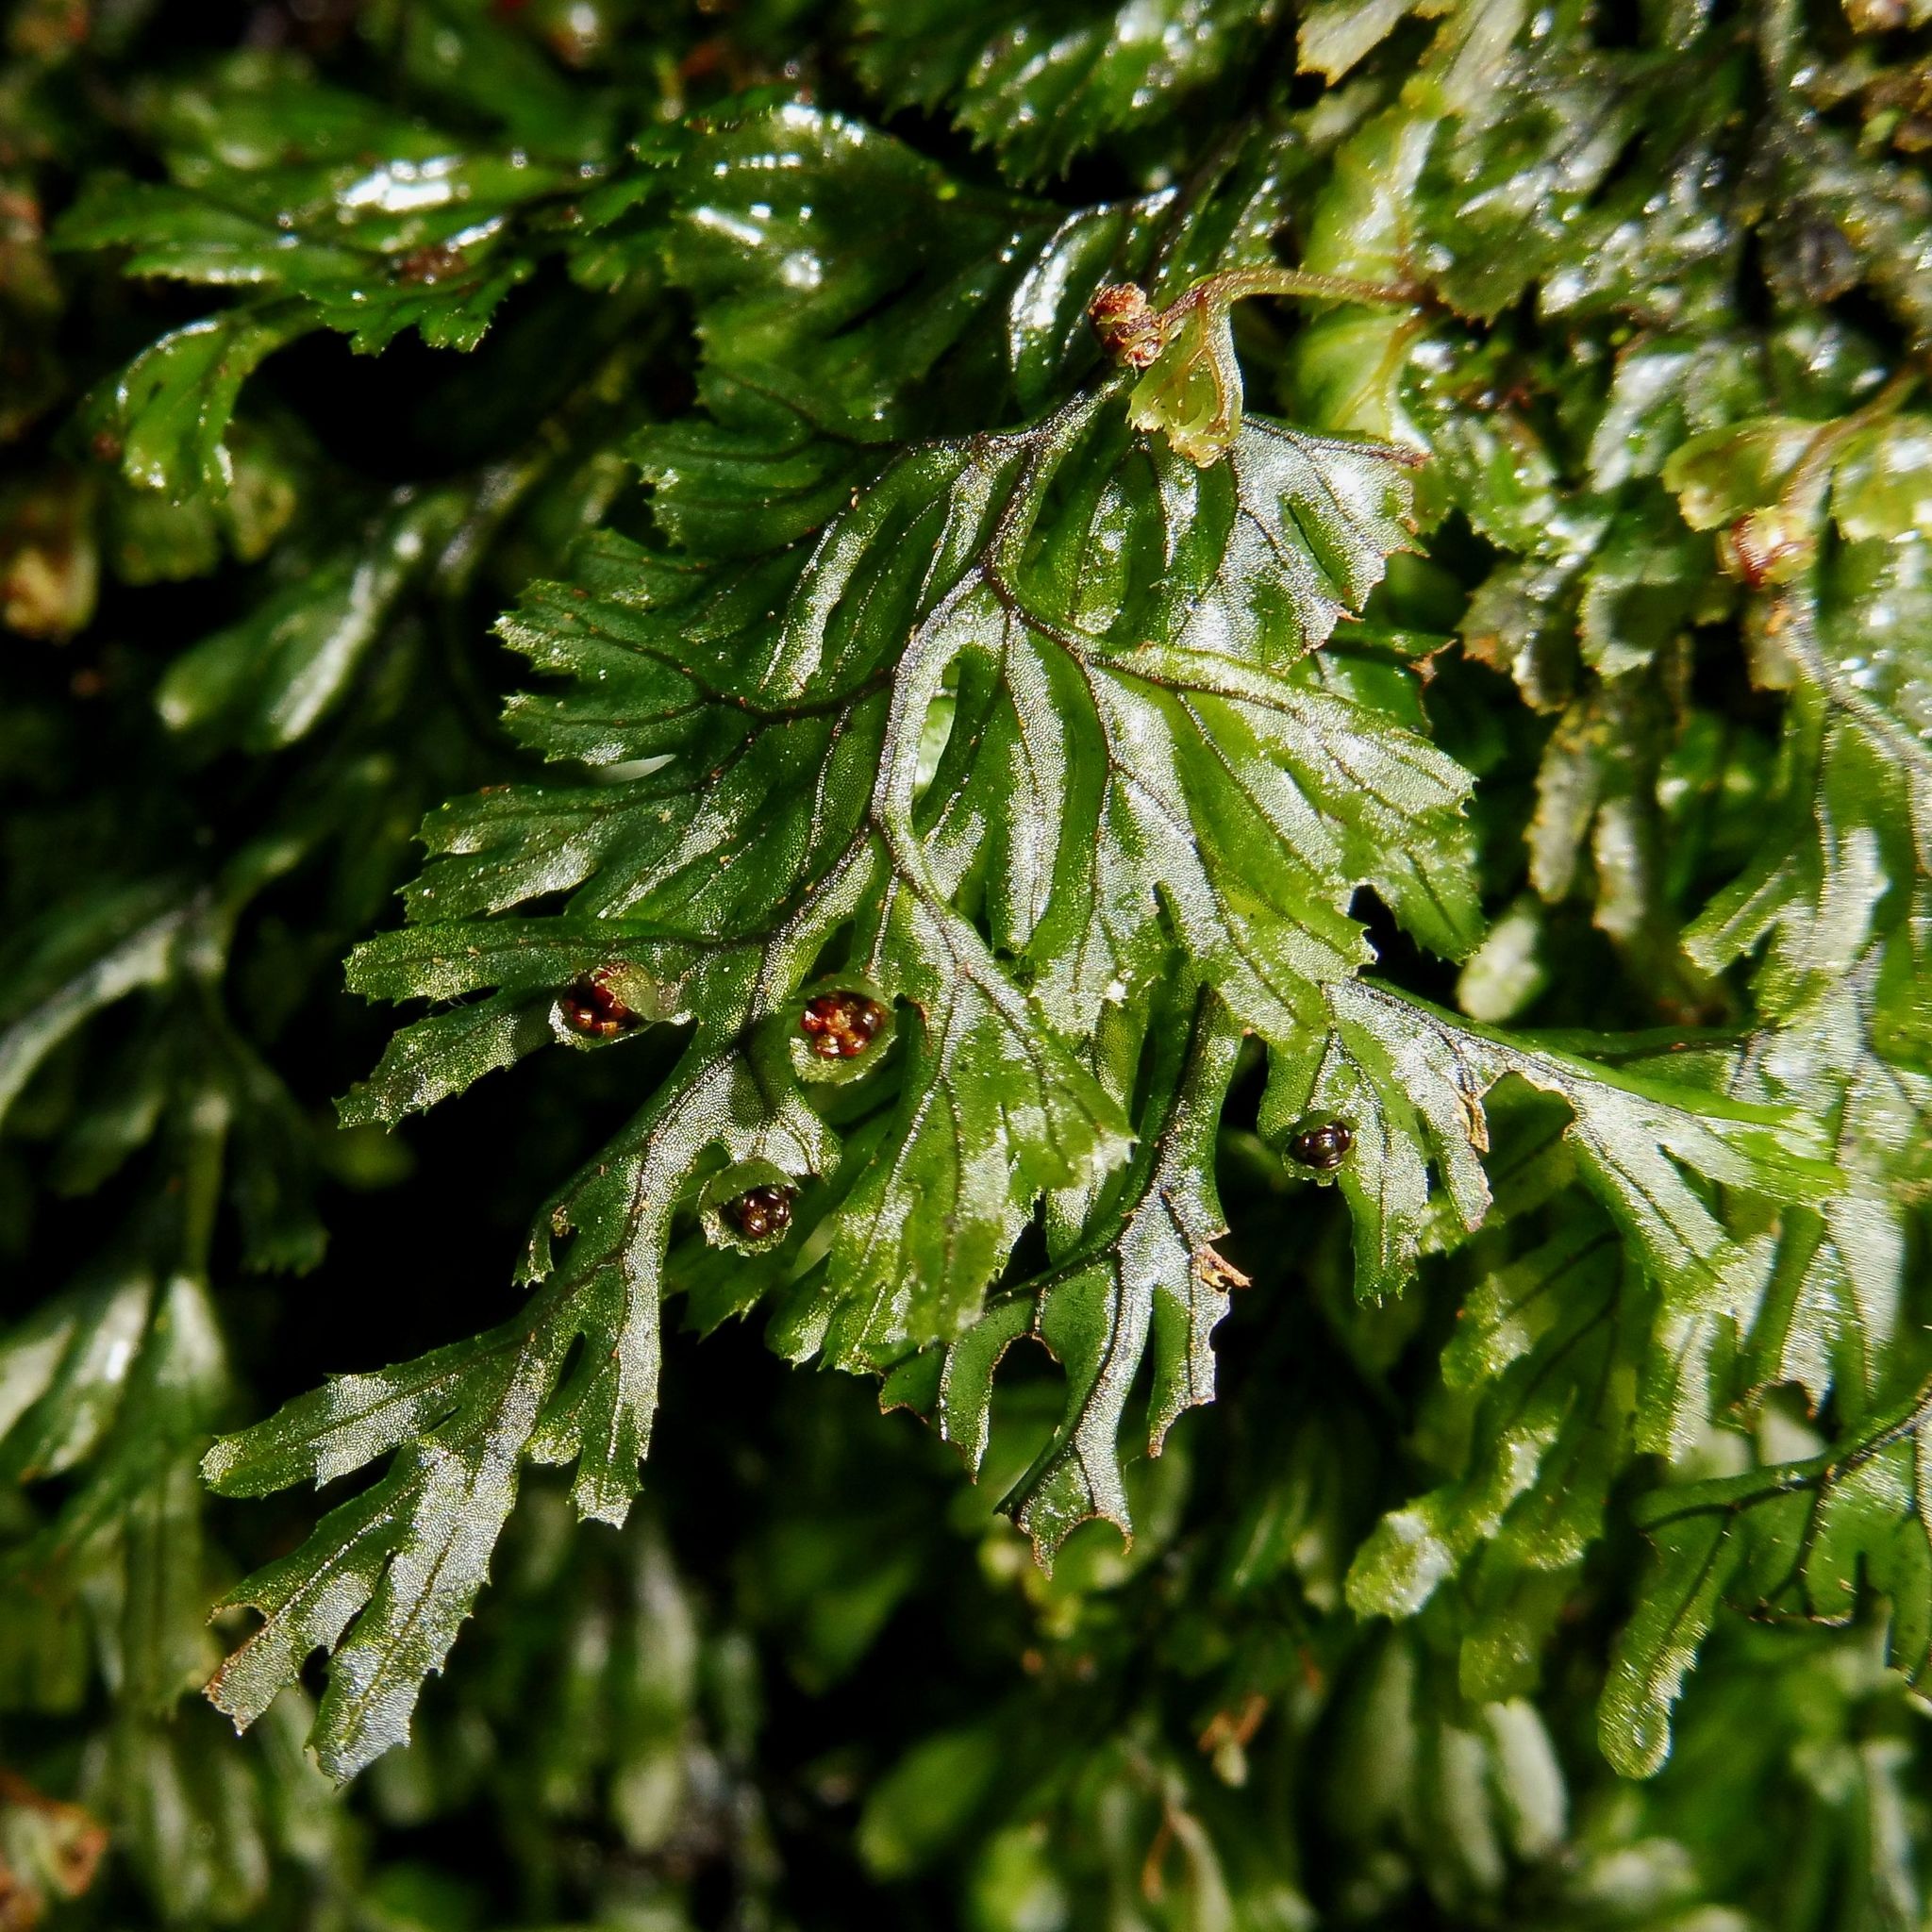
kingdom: Plantae
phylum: Tracheophyta
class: Polypodiopsida
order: Hymenophyllales
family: Hymenophyllaceae
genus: Hymenophyllum
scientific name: Hymenophyllum tunbrigense
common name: Tunbridge filmy fern
